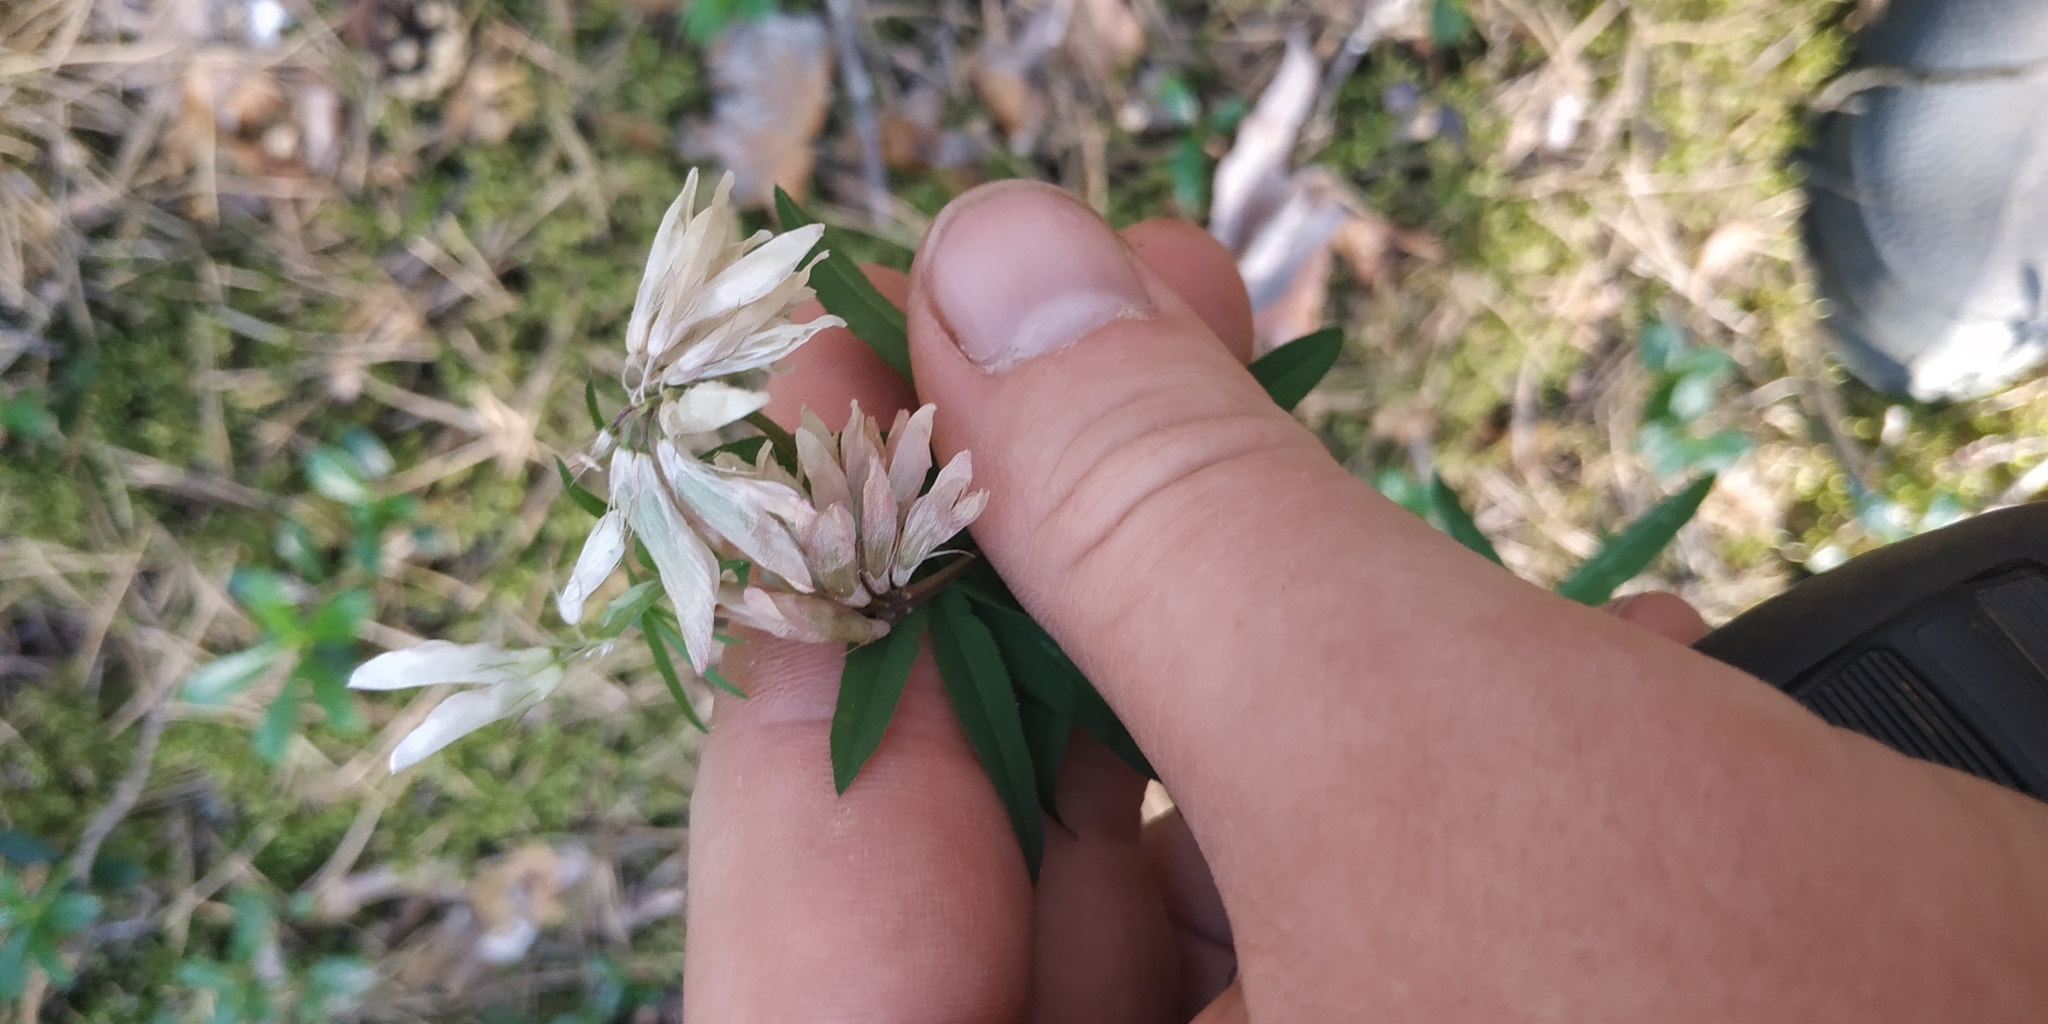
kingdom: Plantae
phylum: Tracheophyta
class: Magnoliopsida
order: Fabales
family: Fabaceae
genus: Trifolium
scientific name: Trifolium lupinaster
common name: Lupine clover
